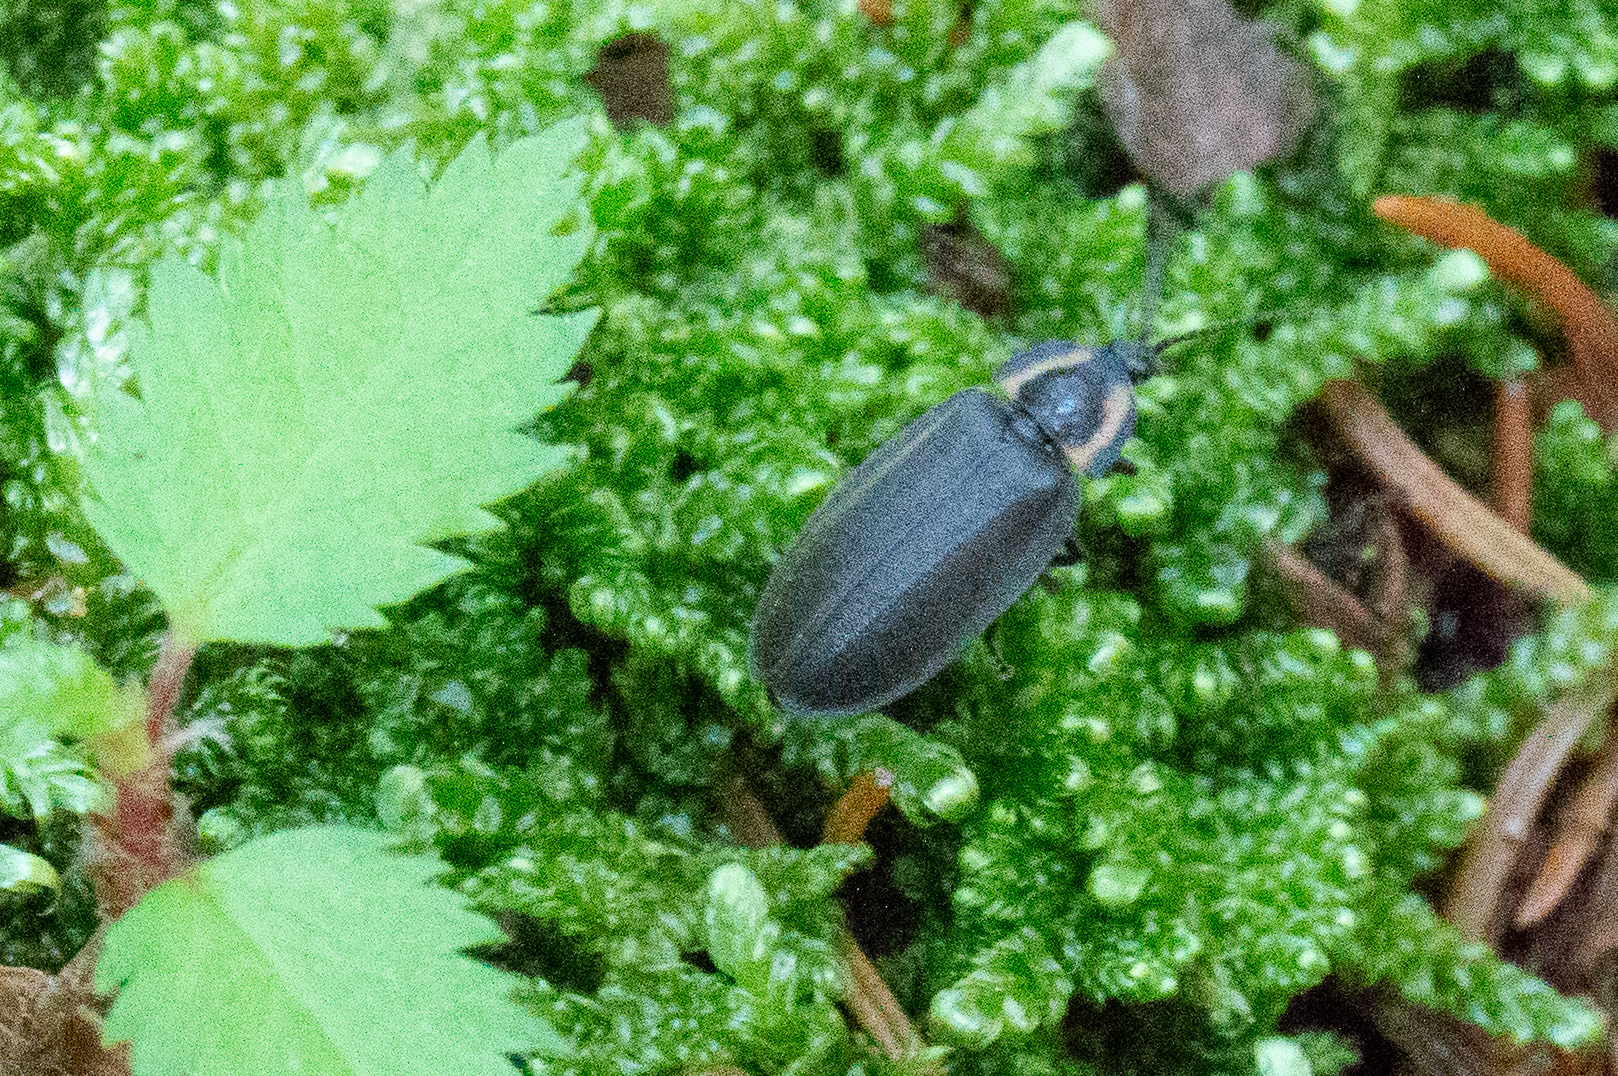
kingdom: Animalia
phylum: Arthropoda
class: Insecta
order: Coleoptera
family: Lampyridae
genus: Photinus
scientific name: Photinus corrusca
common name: Winter firefly
